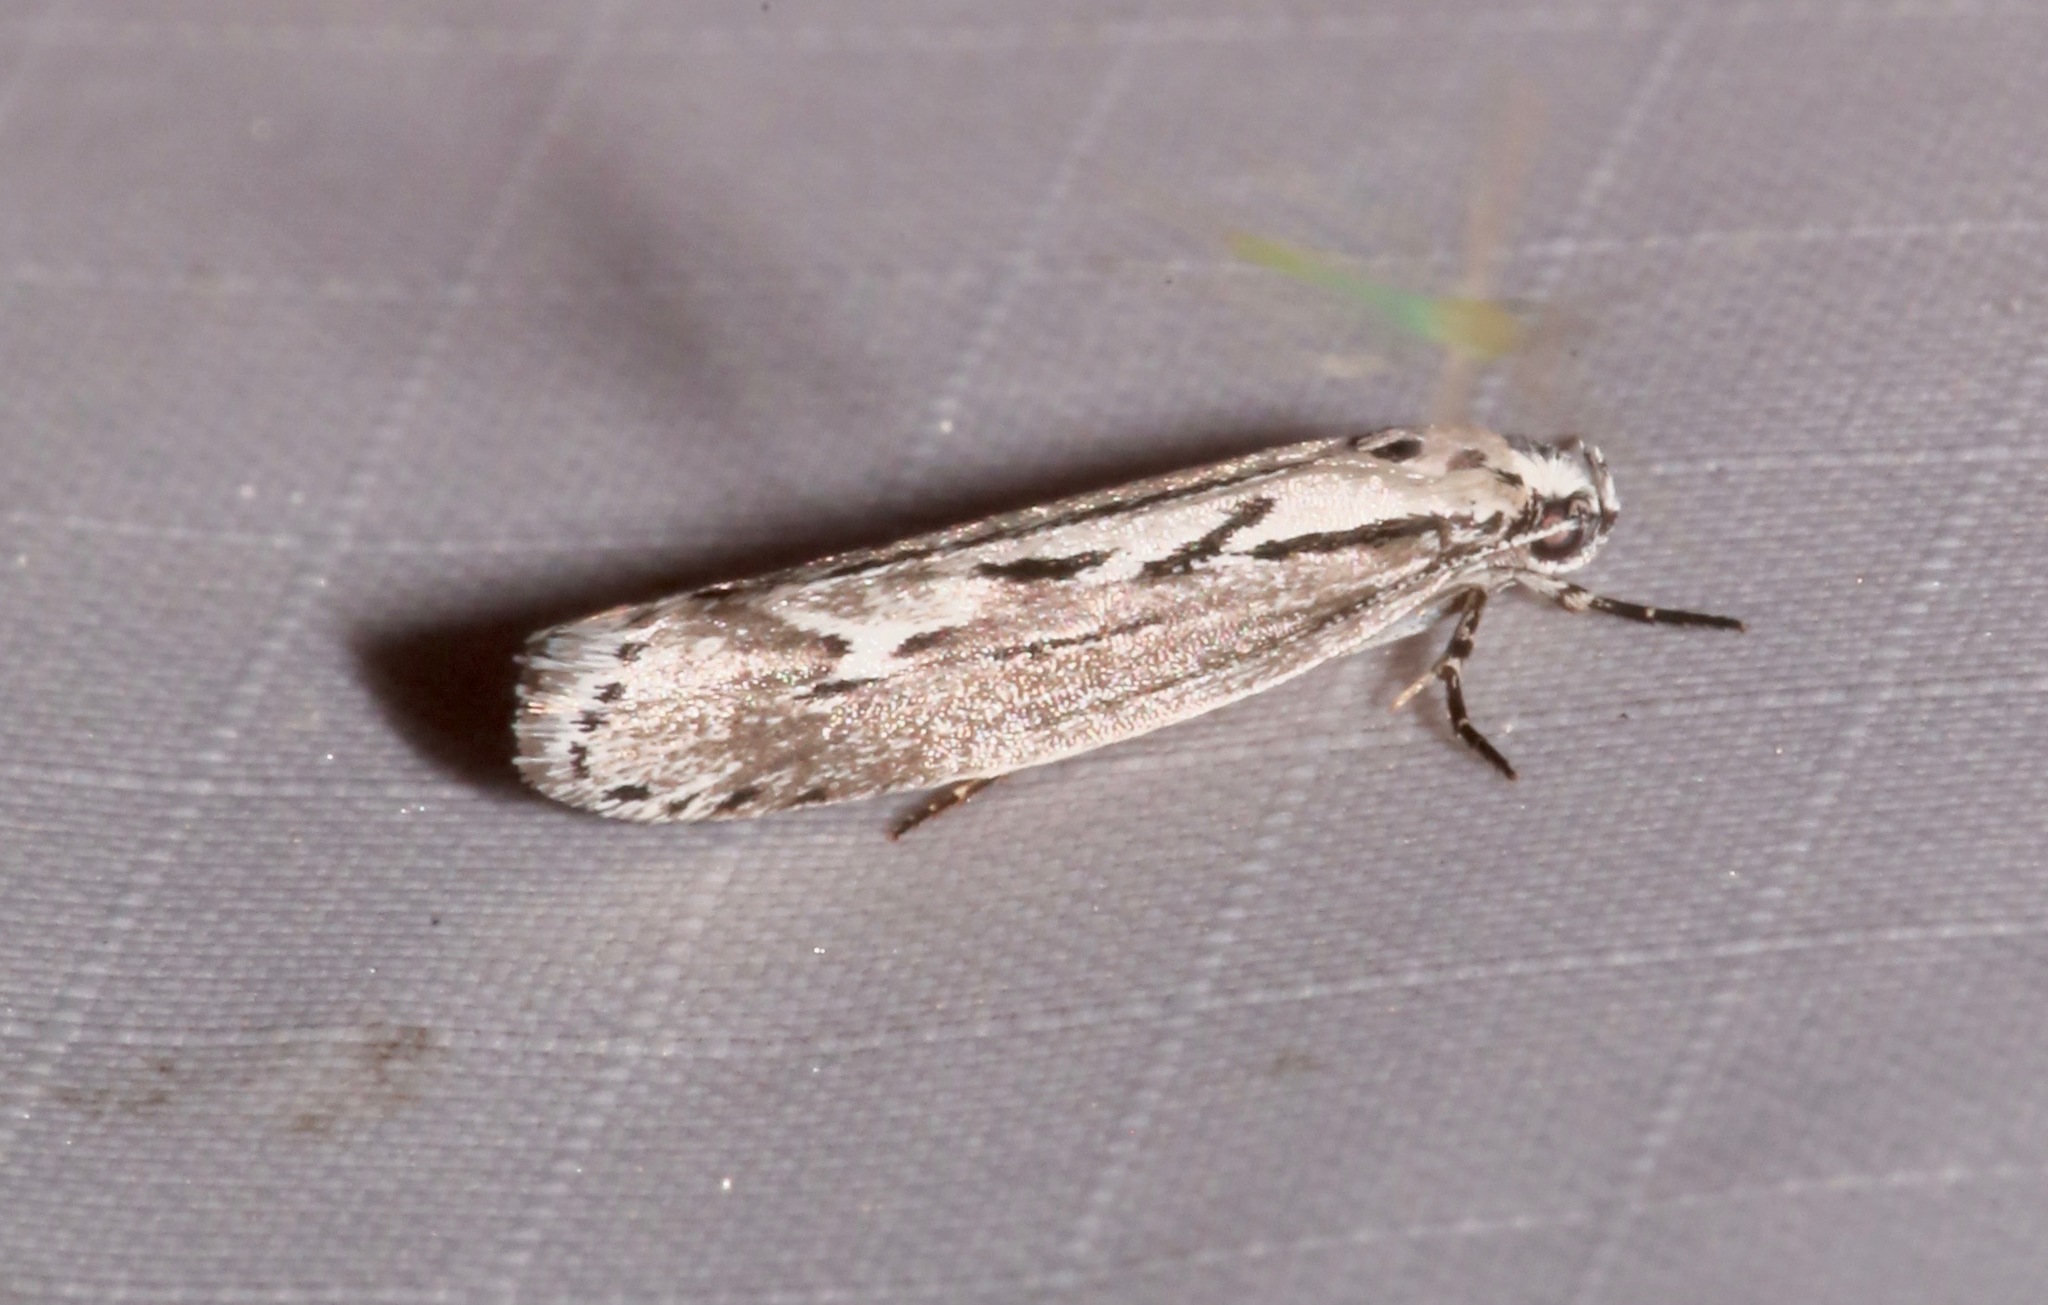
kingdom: Animalia
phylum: Arthropoda
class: Insecta
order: Lepidoptera
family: Ethmiidae
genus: Ethmia
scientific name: Ethmia discostrigella
